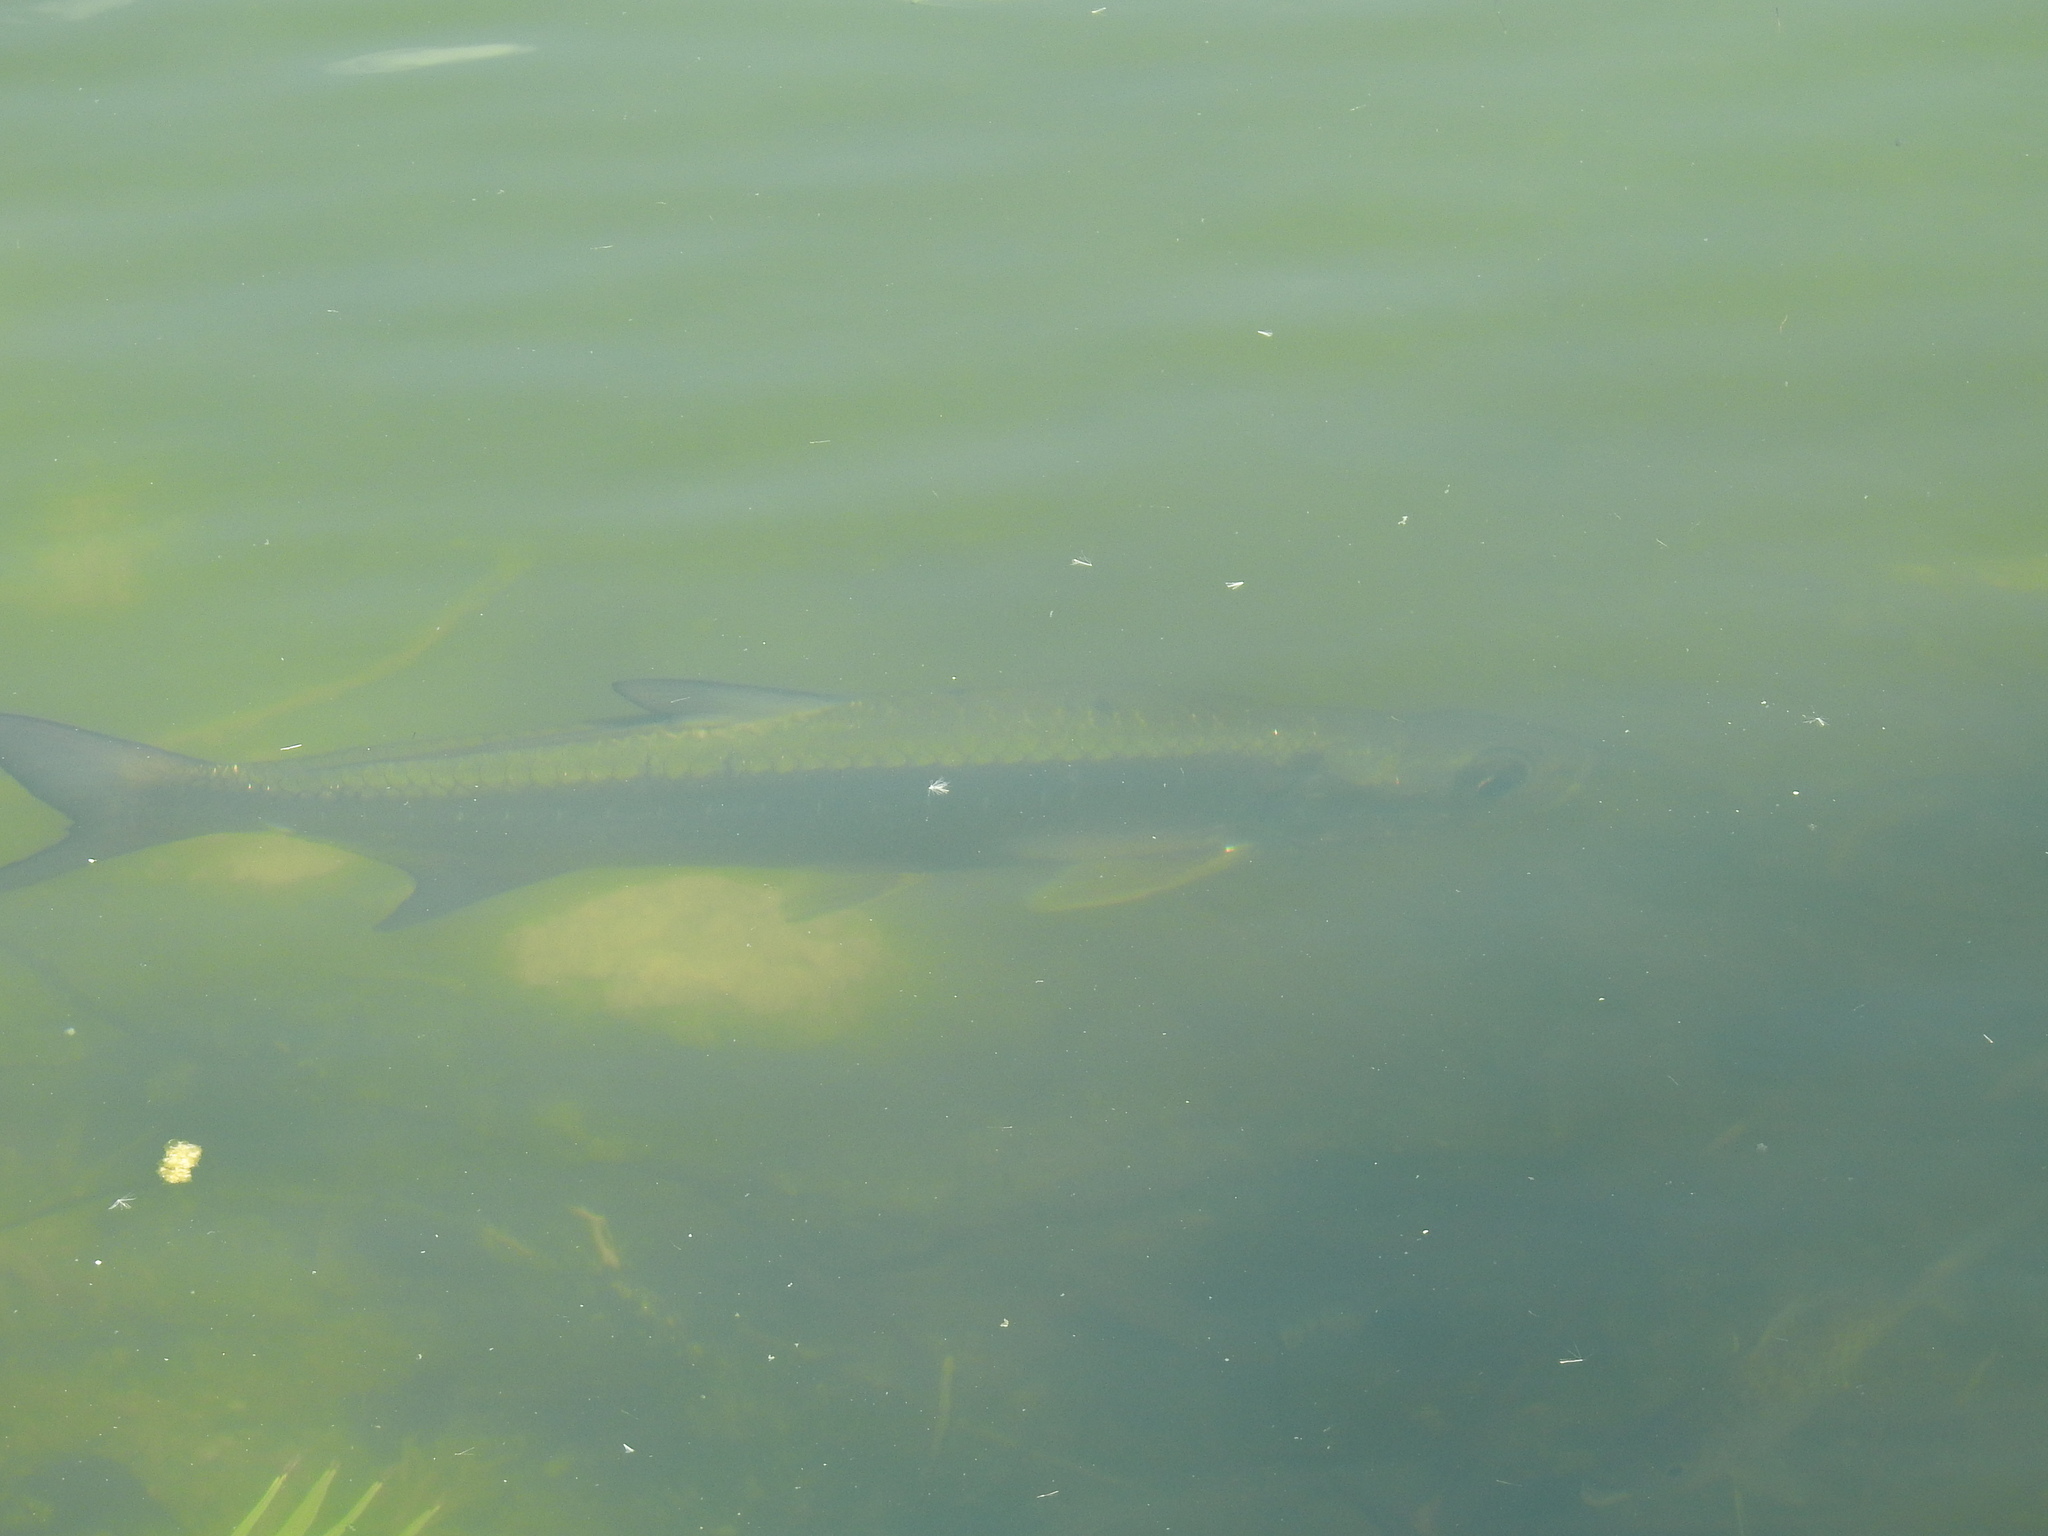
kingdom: Animalia
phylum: Chordata
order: Elopiformes
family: Megalopidae
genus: Megalops
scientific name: Megalops atlanticus
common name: Tarpon
